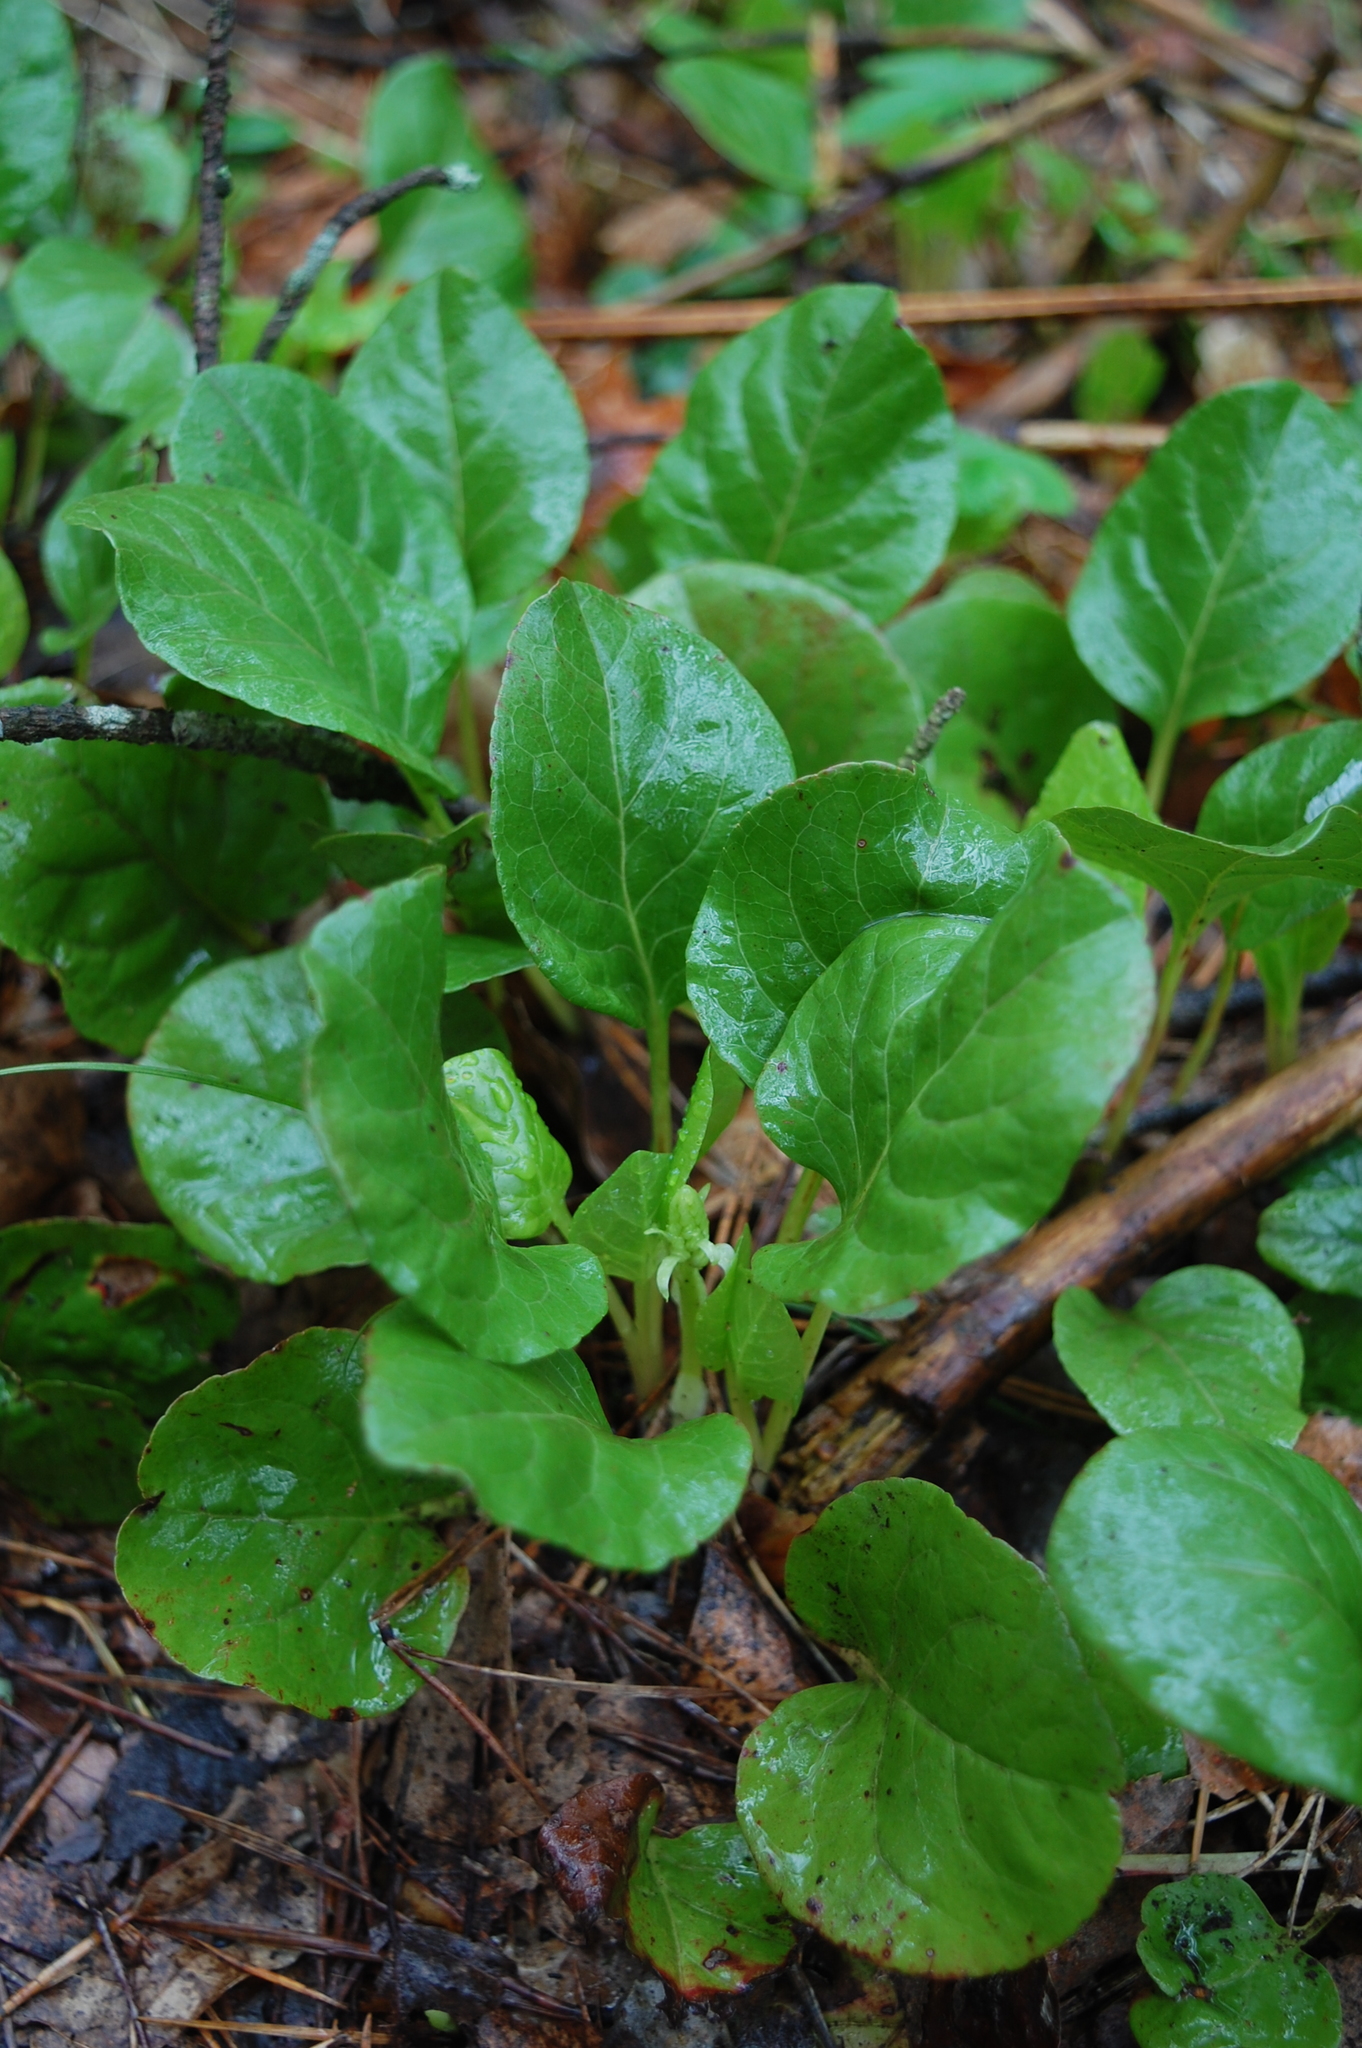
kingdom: Plantae
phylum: Tracheophyta
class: Magnoliopsida
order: Ericales
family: Ericaceae
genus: Pyrola
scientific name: Pyrola
